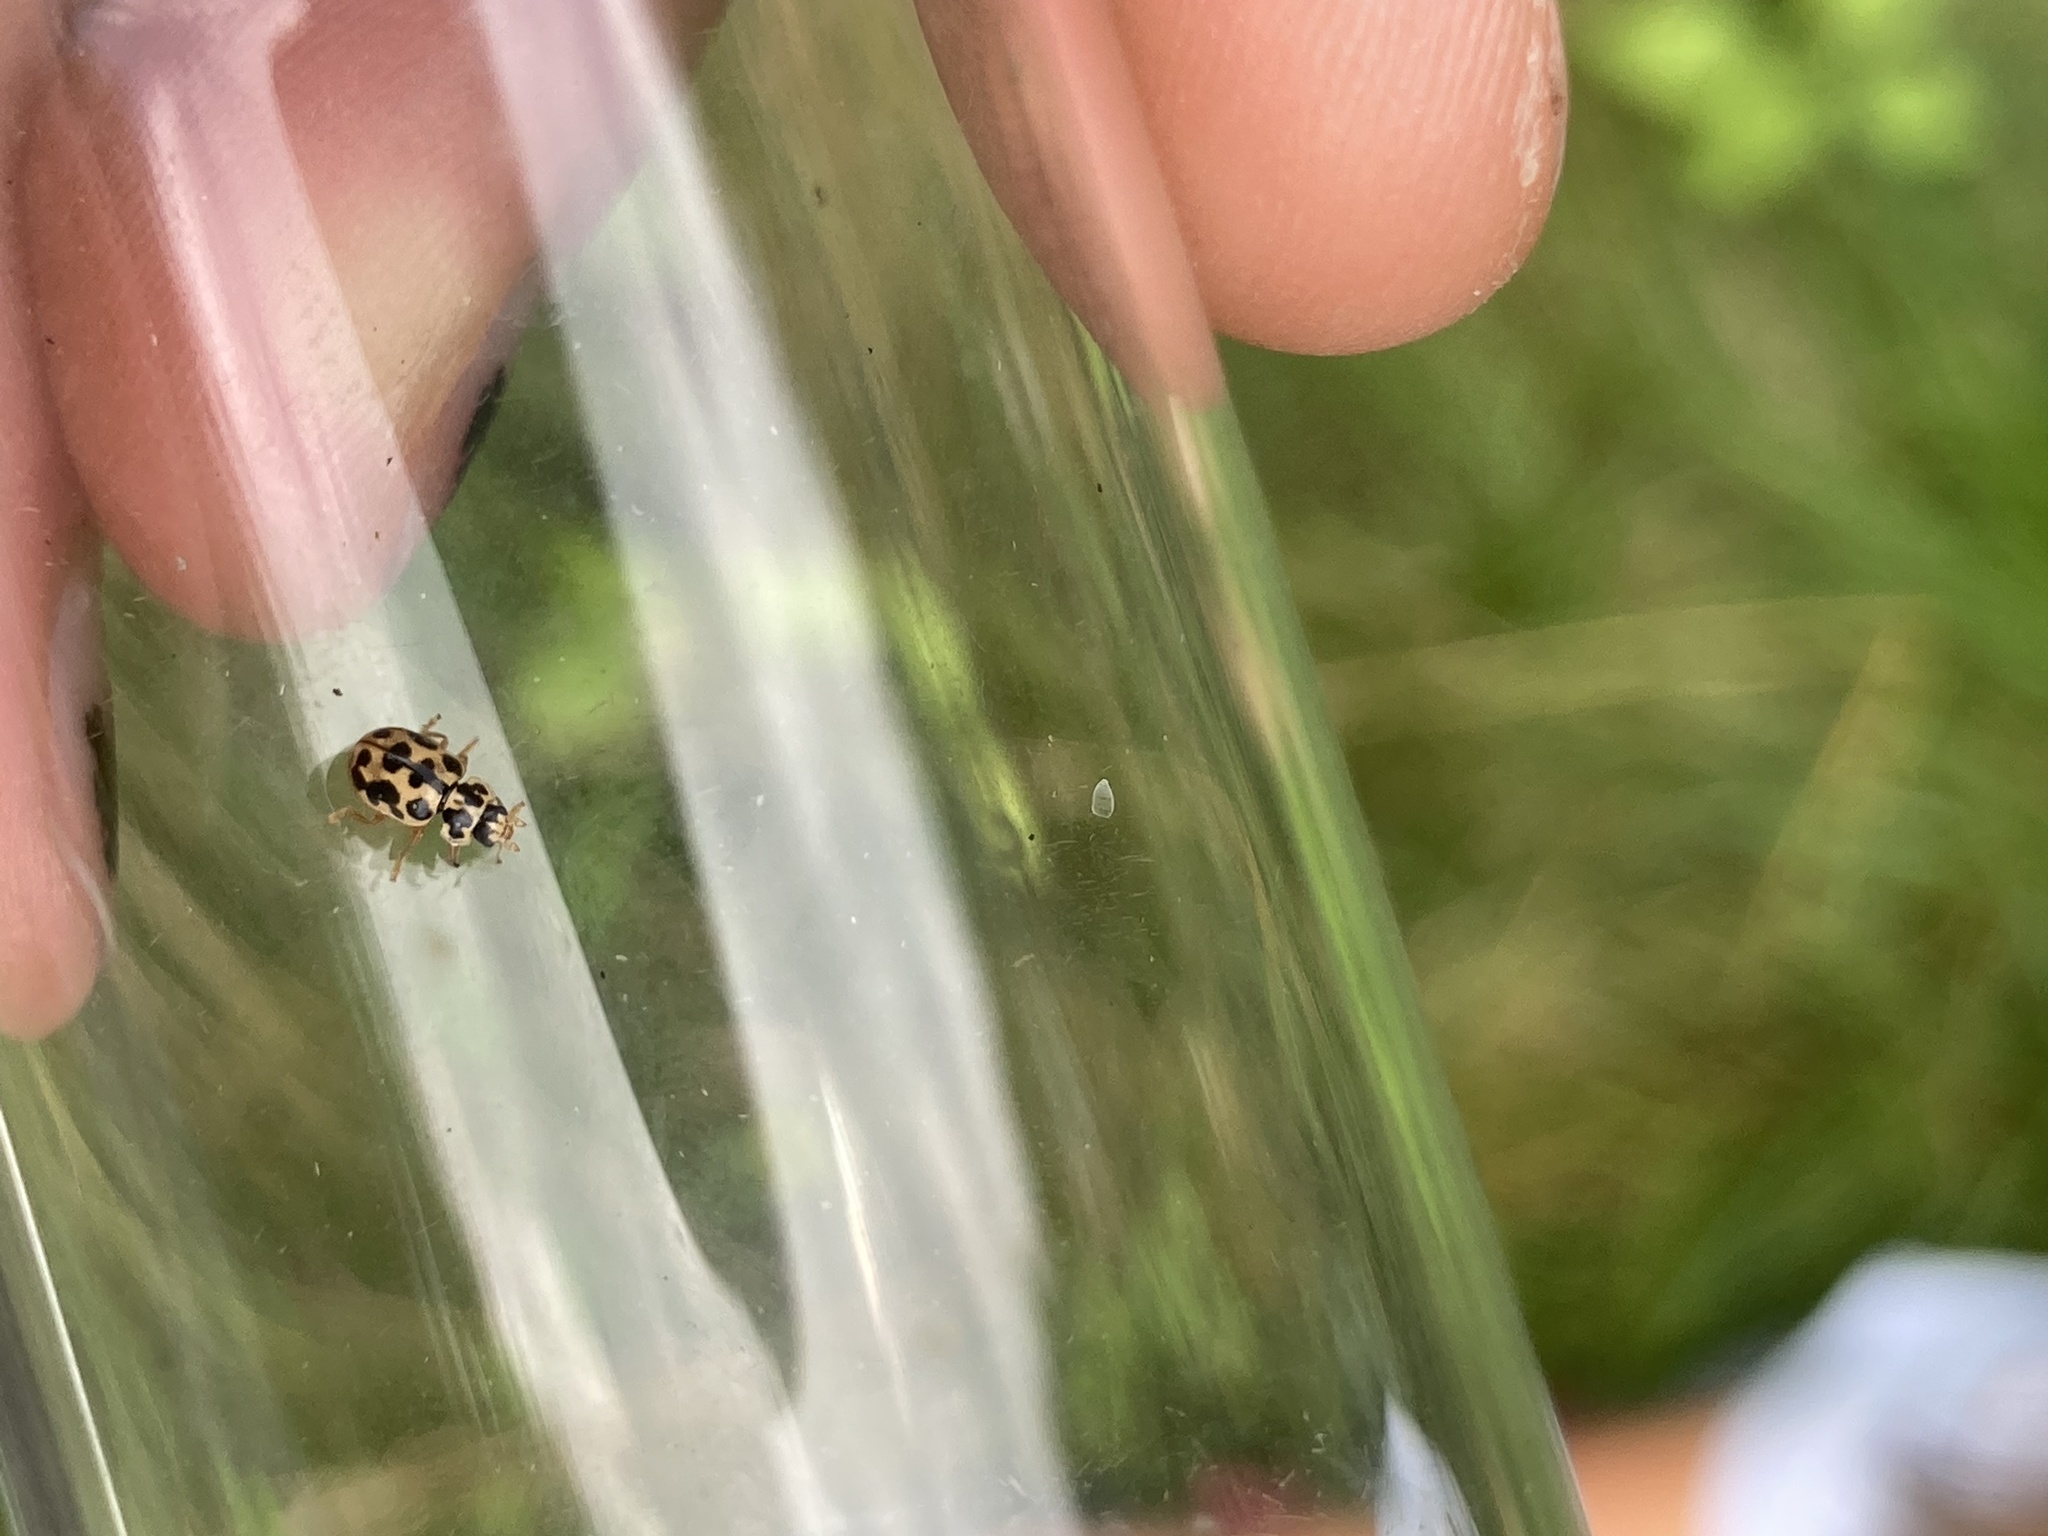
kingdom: Animalia
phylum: Arthropoda
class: Insecta
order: Coleoptera
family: Coccinellidae
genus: Anisosticta
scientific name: Anisosticta bitriangularis
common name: Marsh lady beetle
